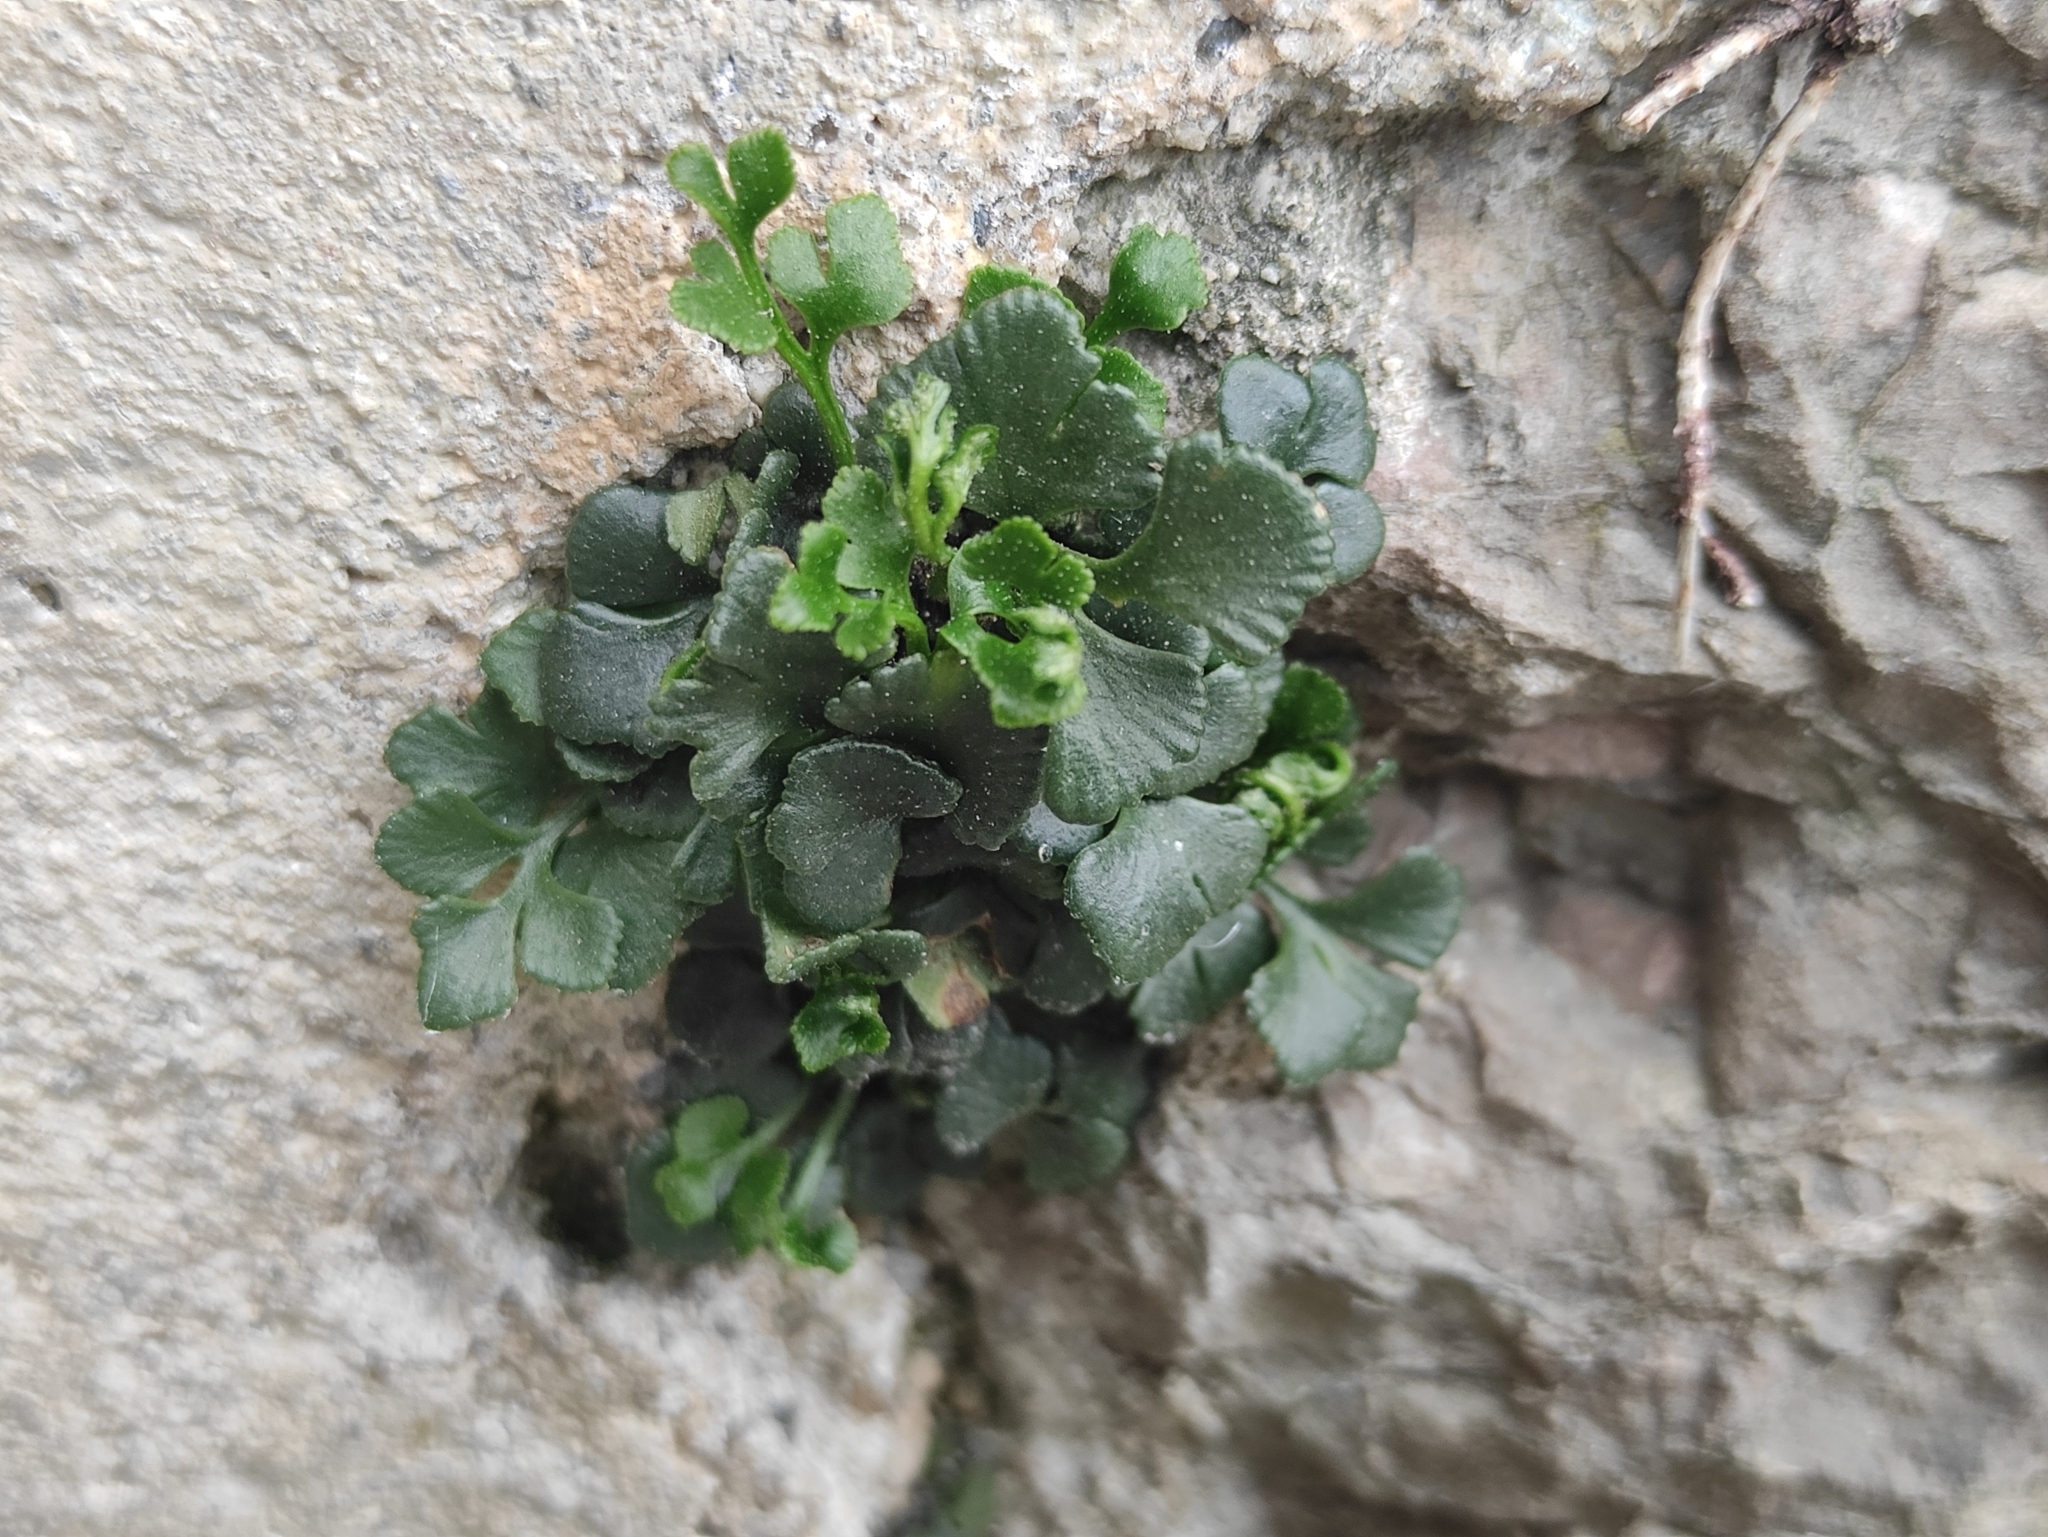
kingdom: Plantae
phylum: Tracheophyta
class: Polypodiopsida
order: Polypodiales
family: Aspleniaceae
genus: Asplenium
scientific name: Asplenium ruta-muraria
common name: Wall-rue
